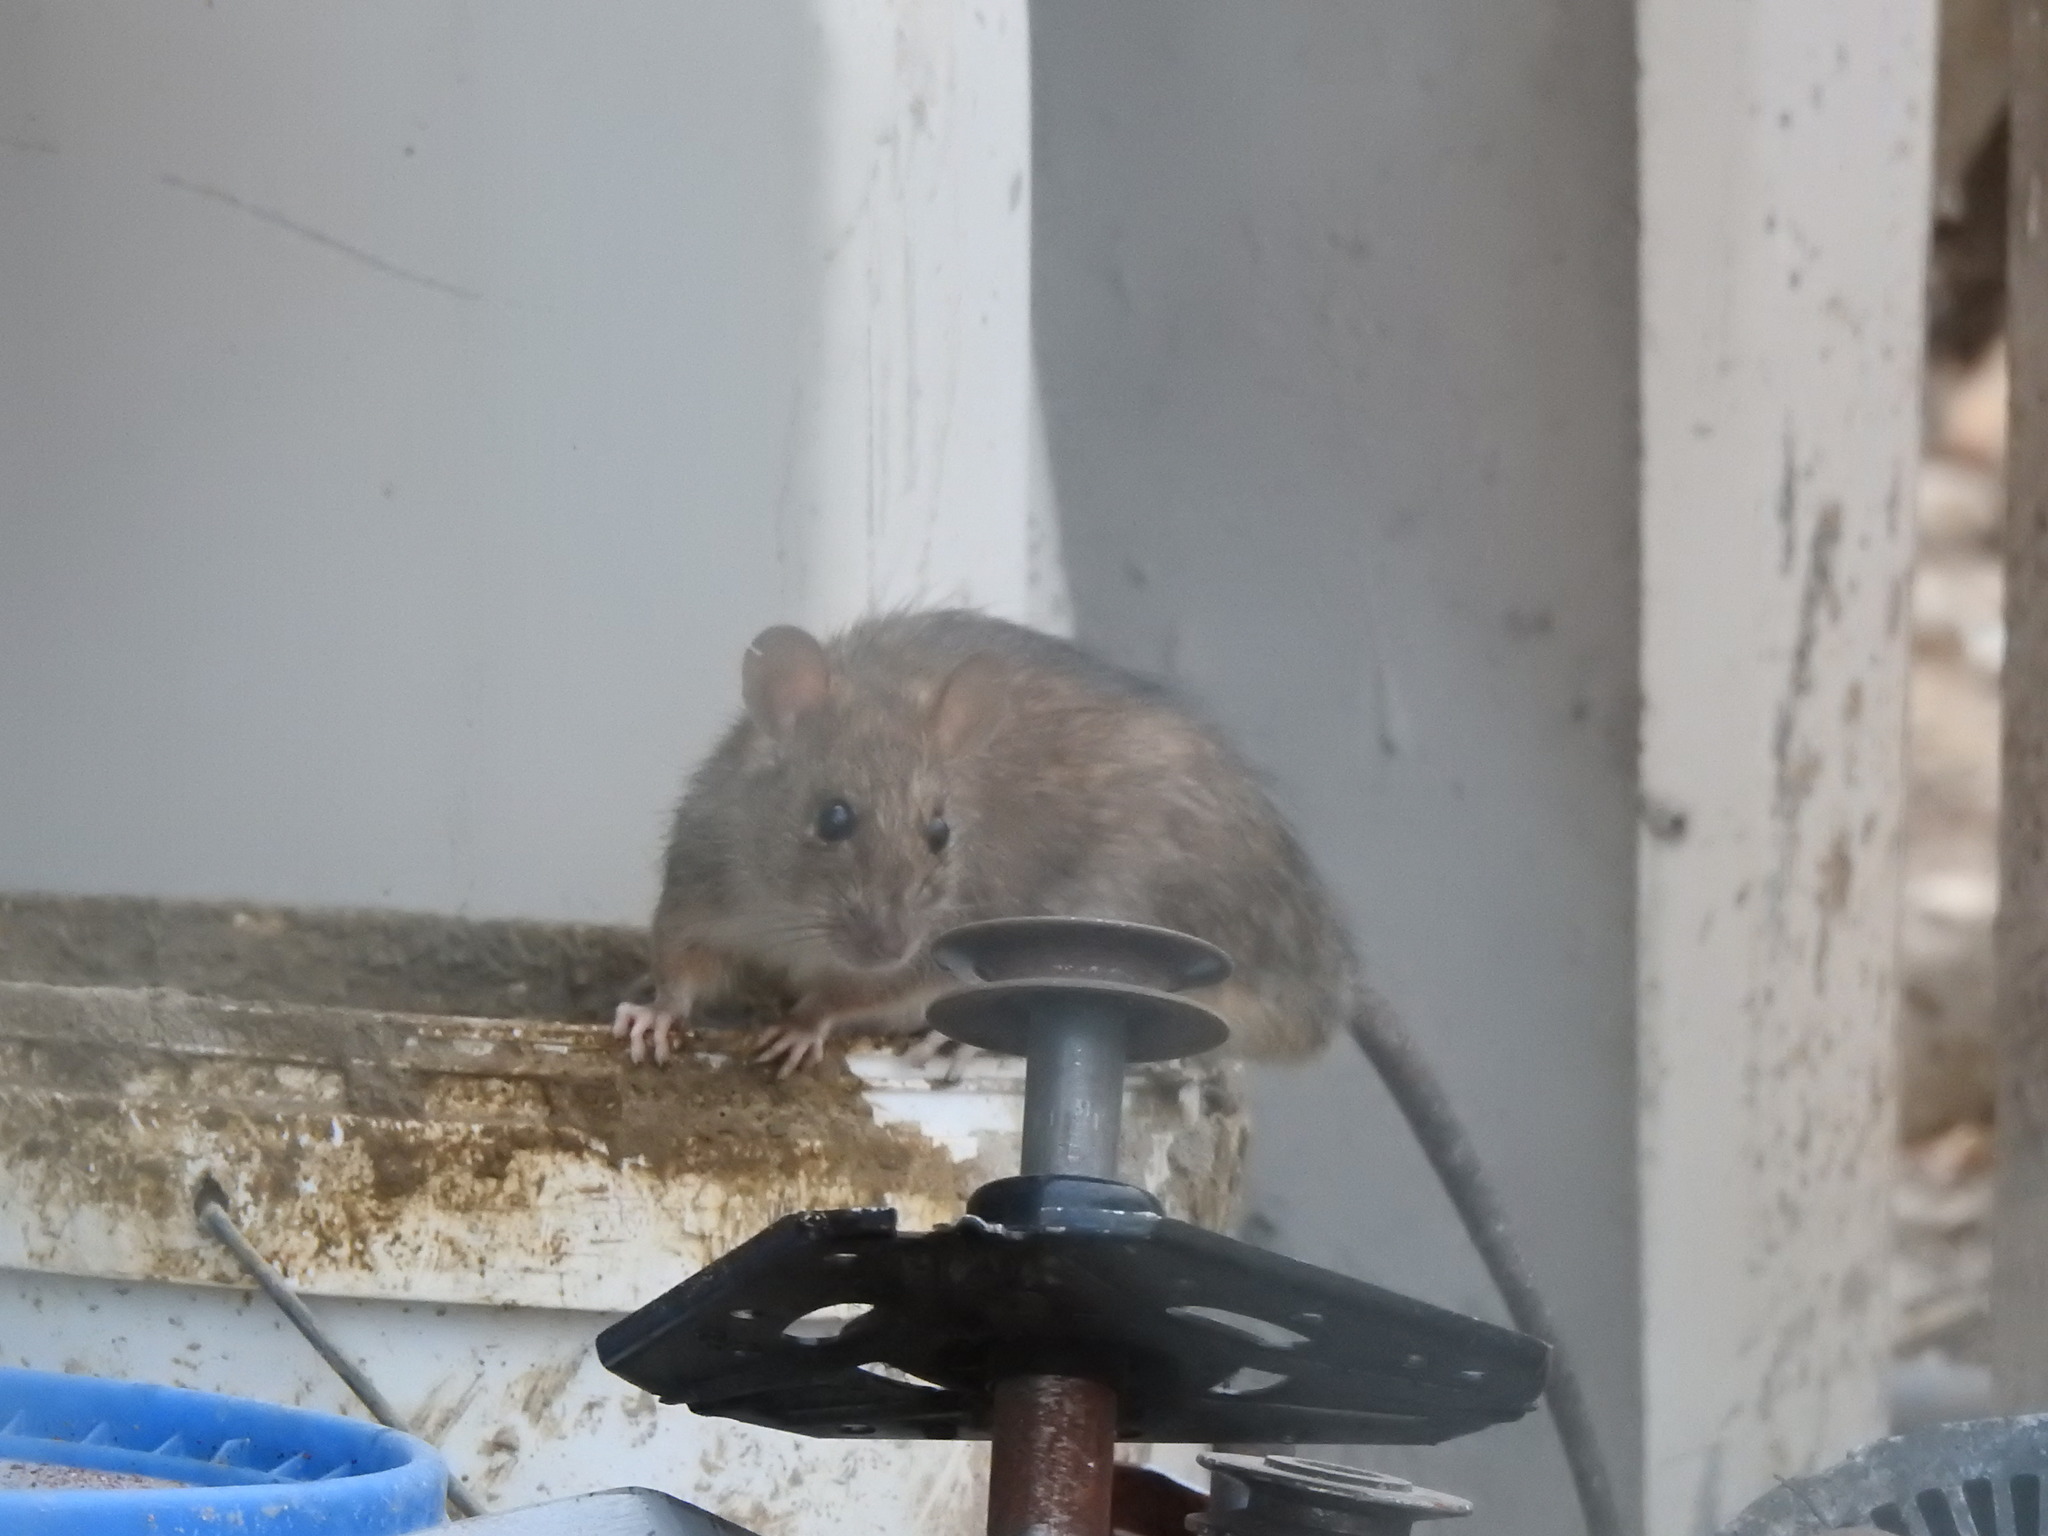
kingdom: Animalia
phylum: Chordata
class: Mammalia
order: Rodentia
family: Muridae
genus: Rattus
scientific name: Rattus norvegicus
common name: Brown rat
